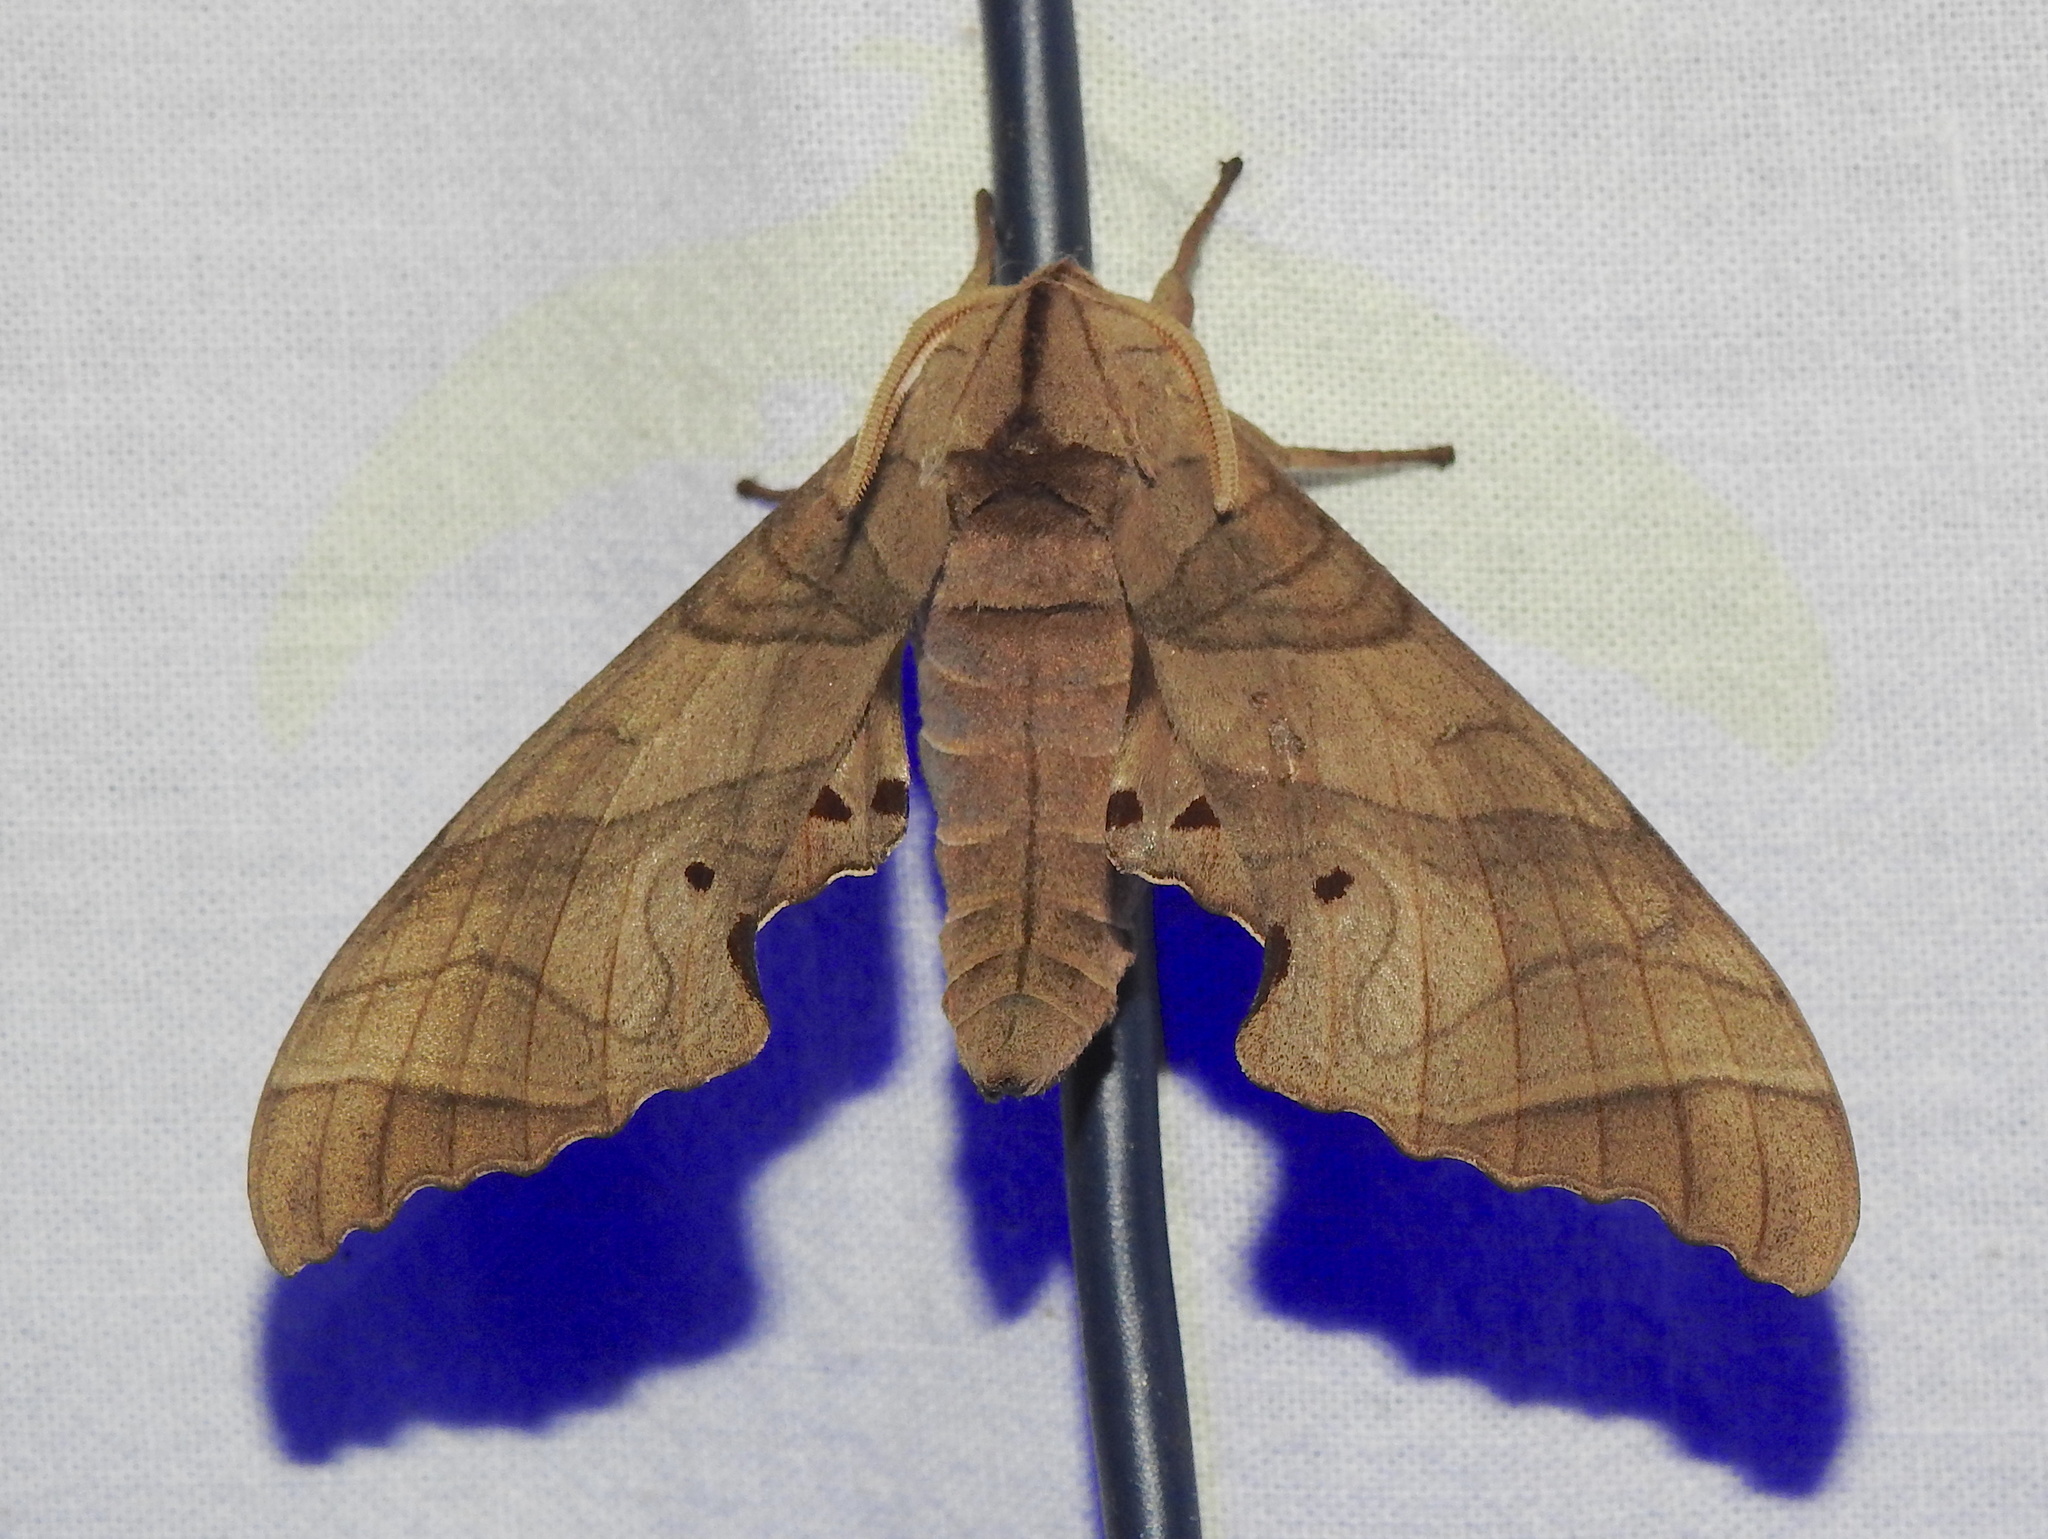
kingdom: Animalia
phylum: Arthropoda
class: Insecta
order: Lepidoptera
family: Sphingidae
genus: Marumba
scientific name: Marumba dyras
